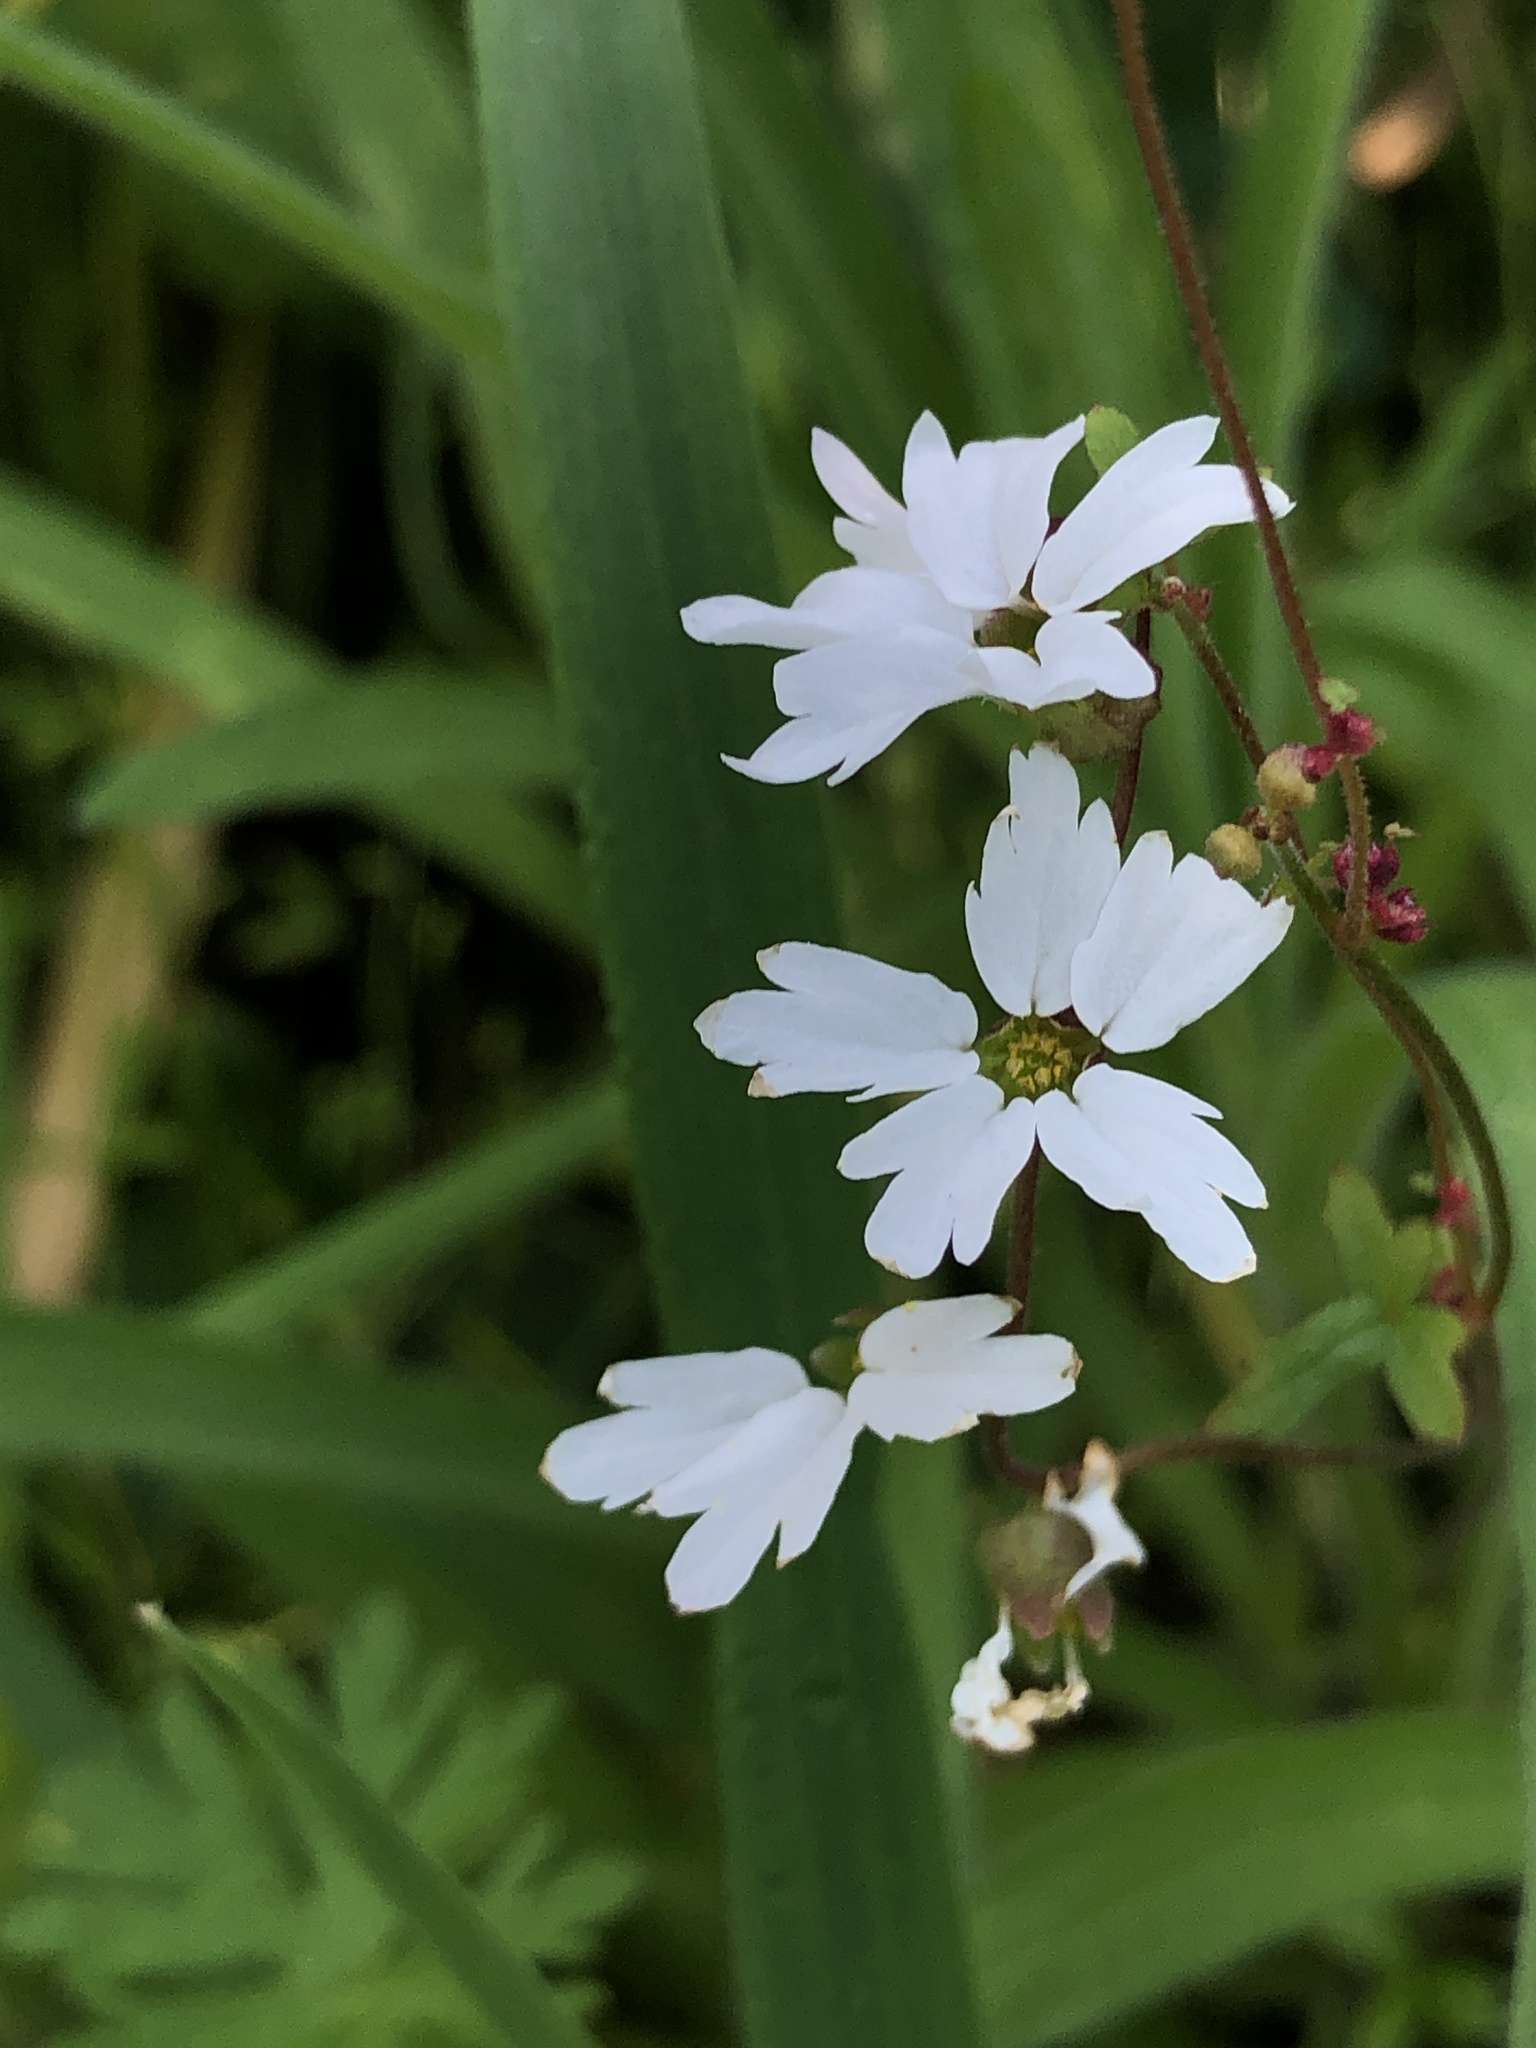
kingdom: Plantae
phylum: Tracheophyta
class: Magnoliopsida
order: Saxifragales
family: Saxifragaceae
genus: Lithophragma
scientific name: Lithophragma heterophyllum
